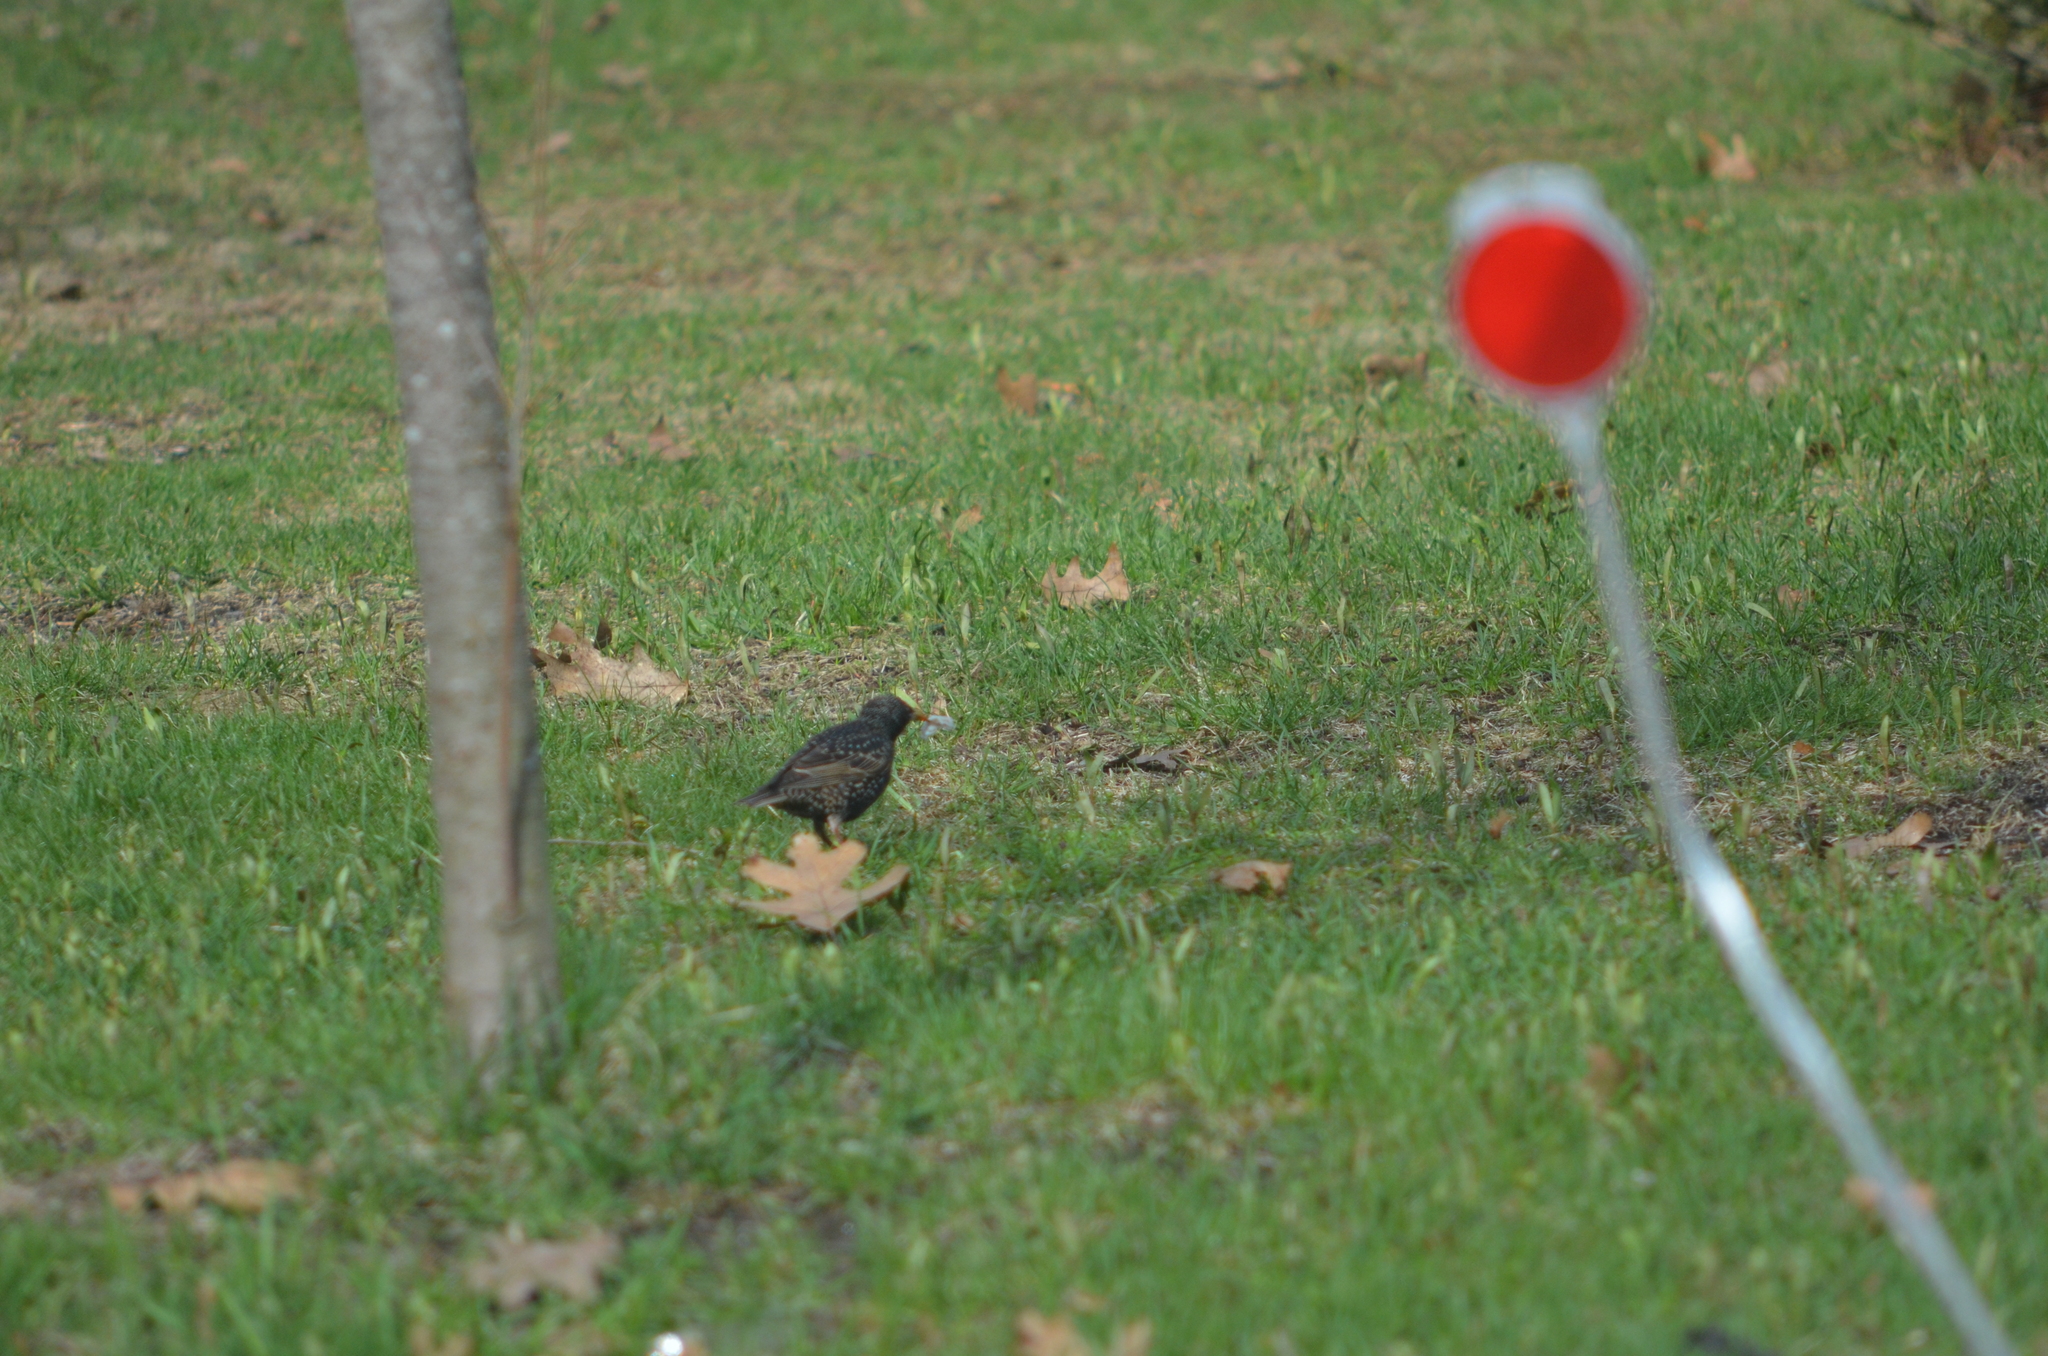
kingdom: Animalia
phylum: Chordata
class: Aves
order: Passeriformes
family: Sturnidae
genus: Sturnus
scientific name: Sturnus vulgaris
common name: Common starling
